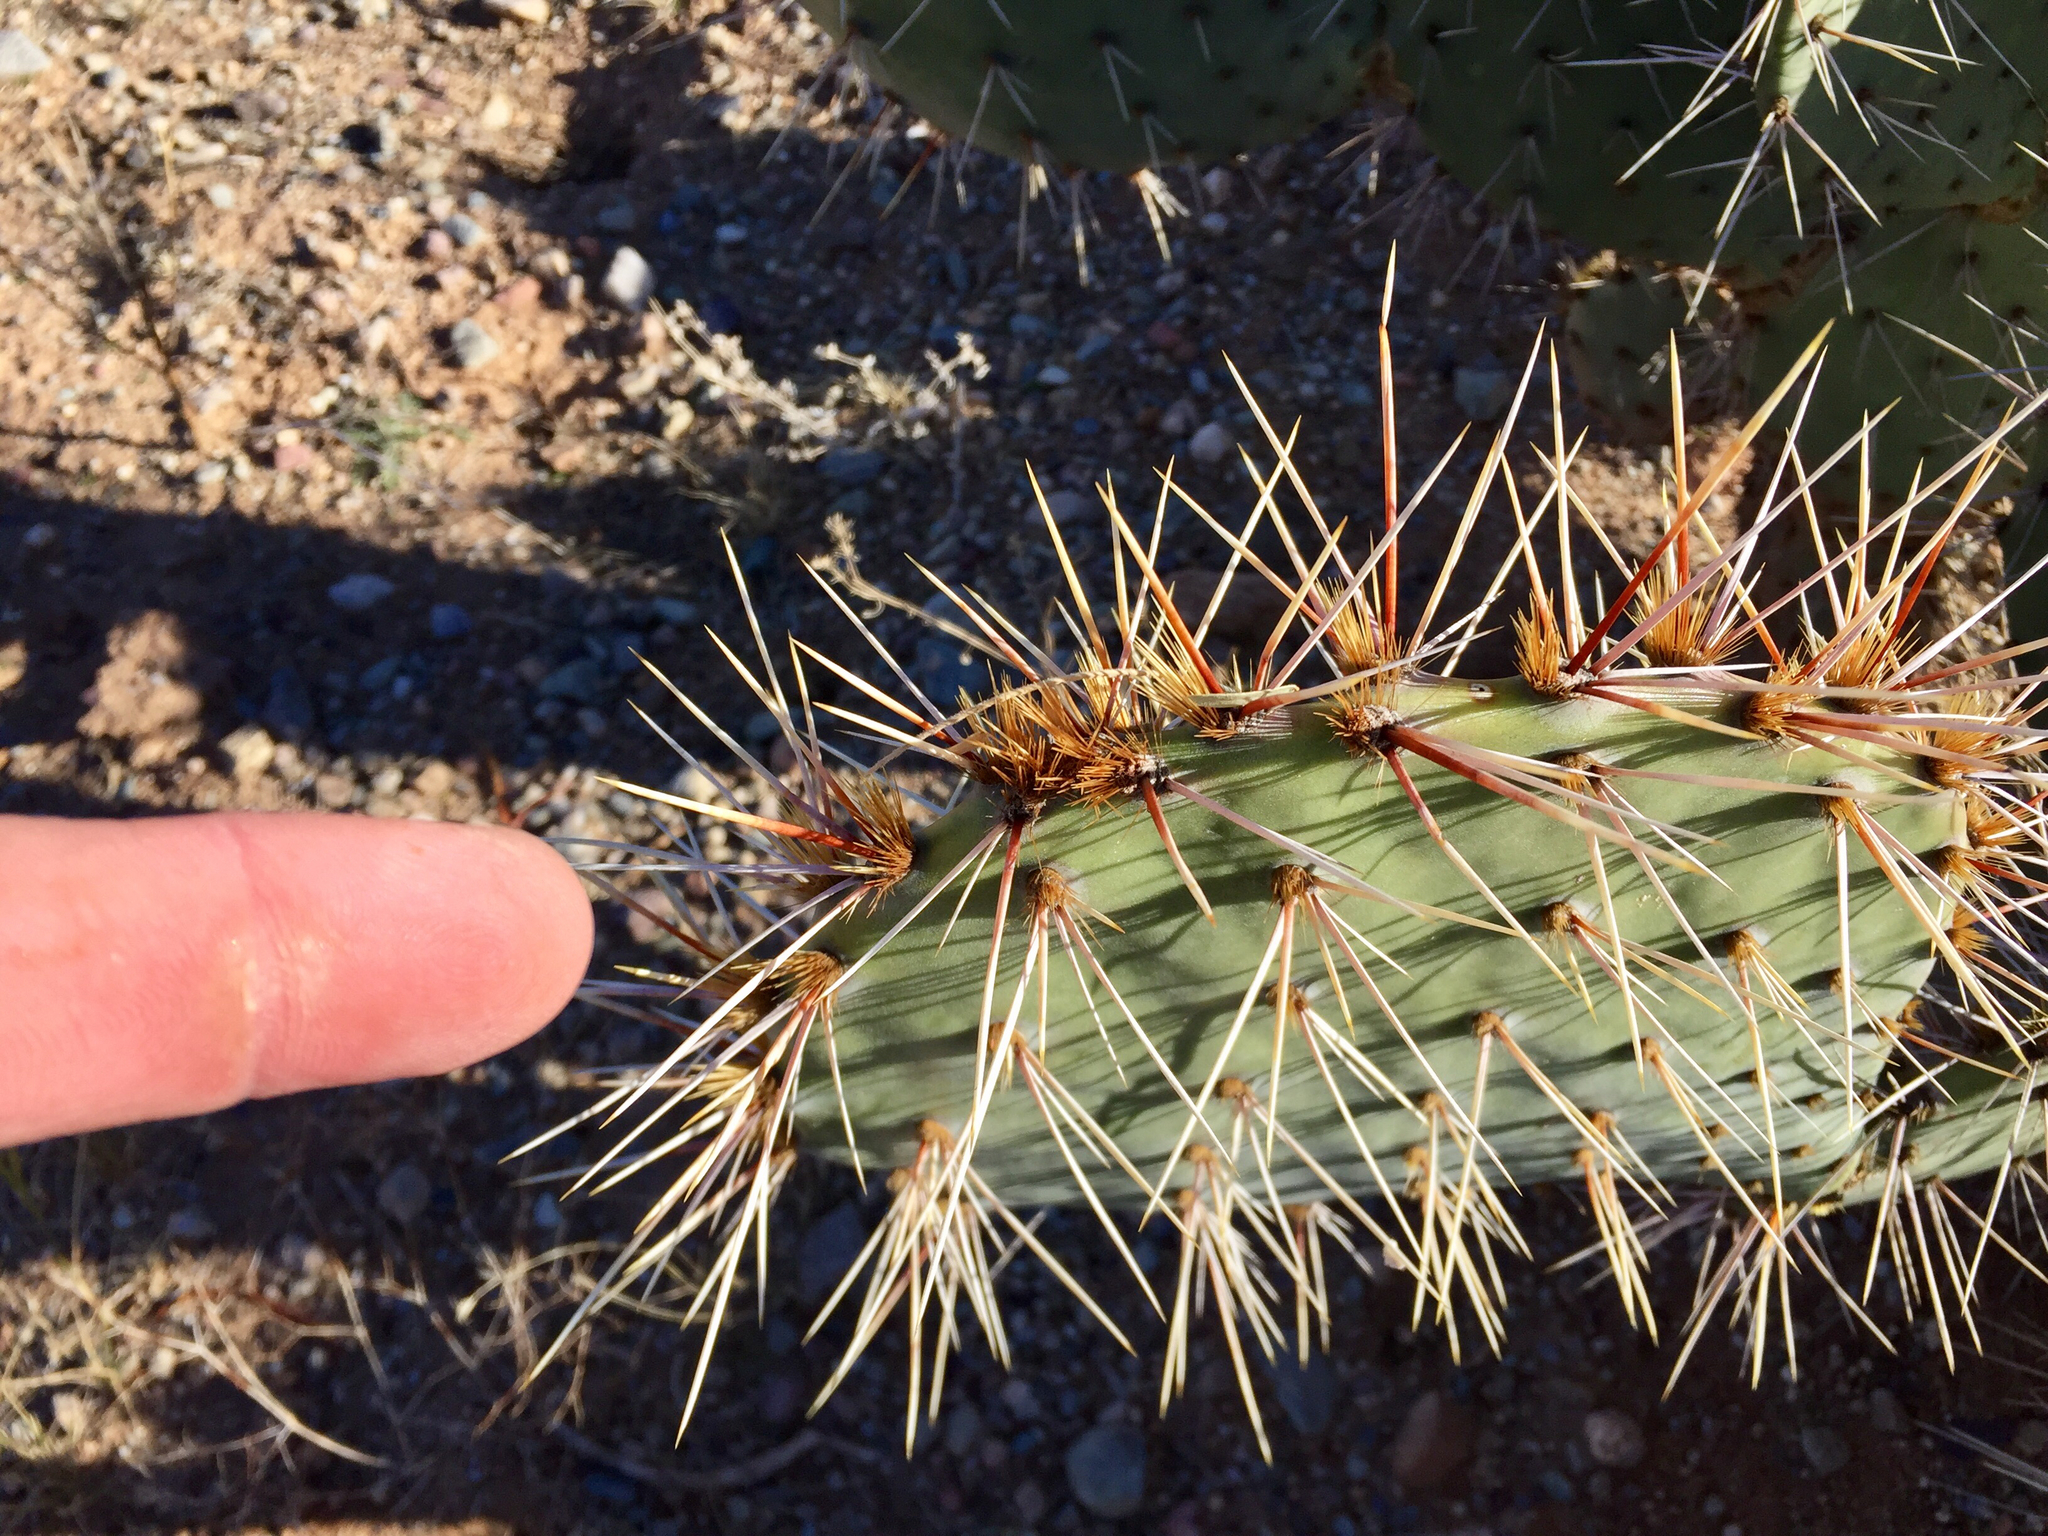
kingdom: Plantae
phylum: Tracheophyta
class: Magnoliopsida
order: Caryophyllales
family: Cactaceae
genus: Opuntia
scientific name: Opuntia engelmannii
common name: Cactus-apple
